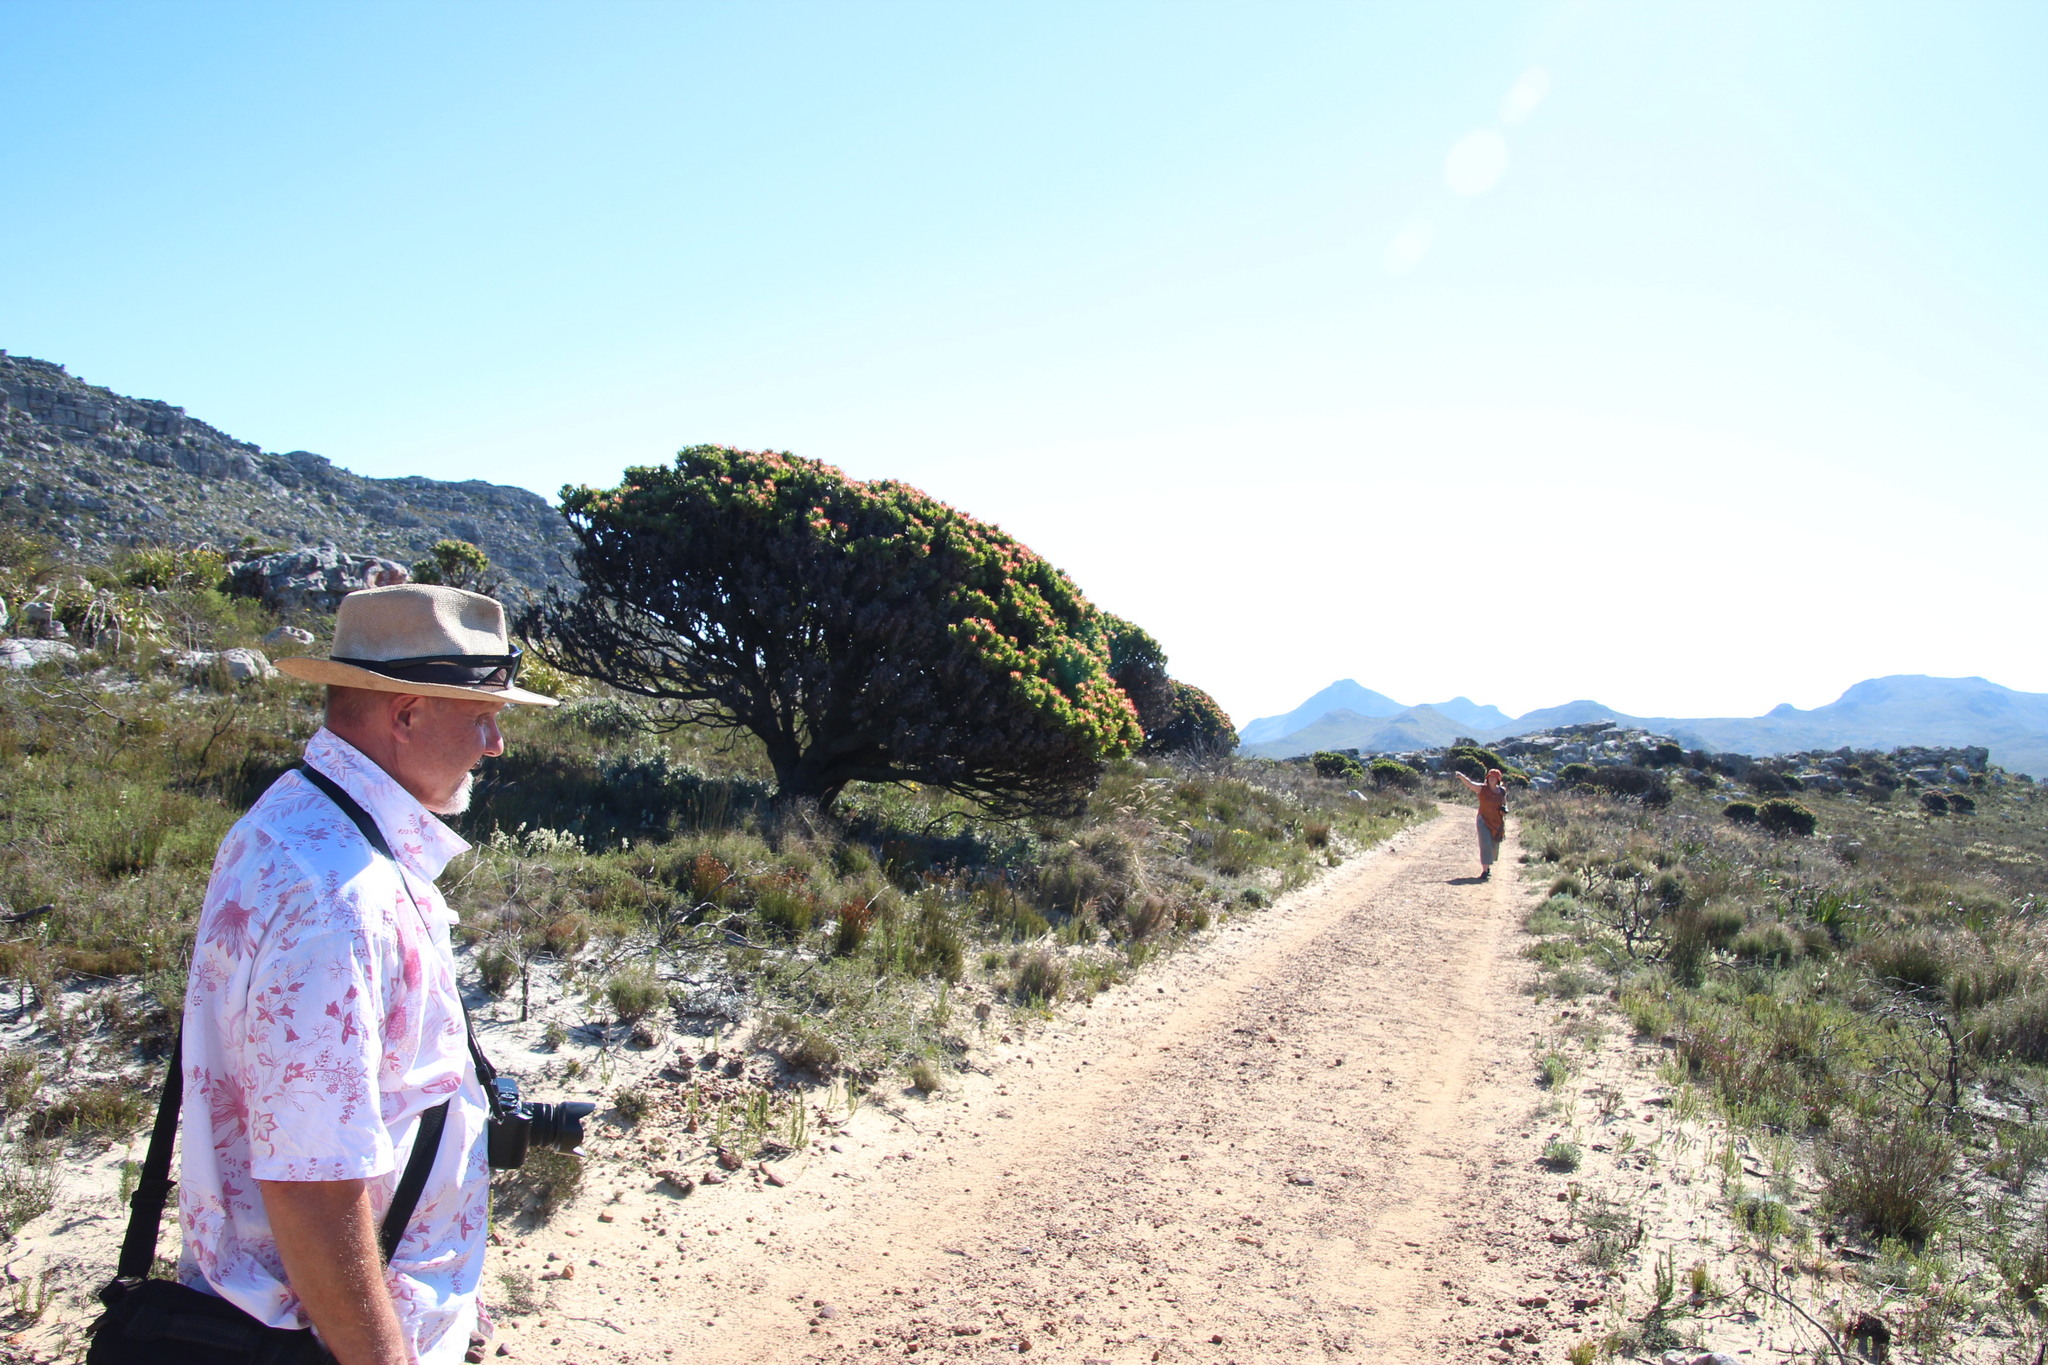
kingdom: Plantae
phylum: Tracheophyta
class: Magnoliopsida
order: Proteales
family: Proteaceae
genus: Mimetes
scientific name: Mimetes fimbriifolius
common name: Fringed bottlebrush
